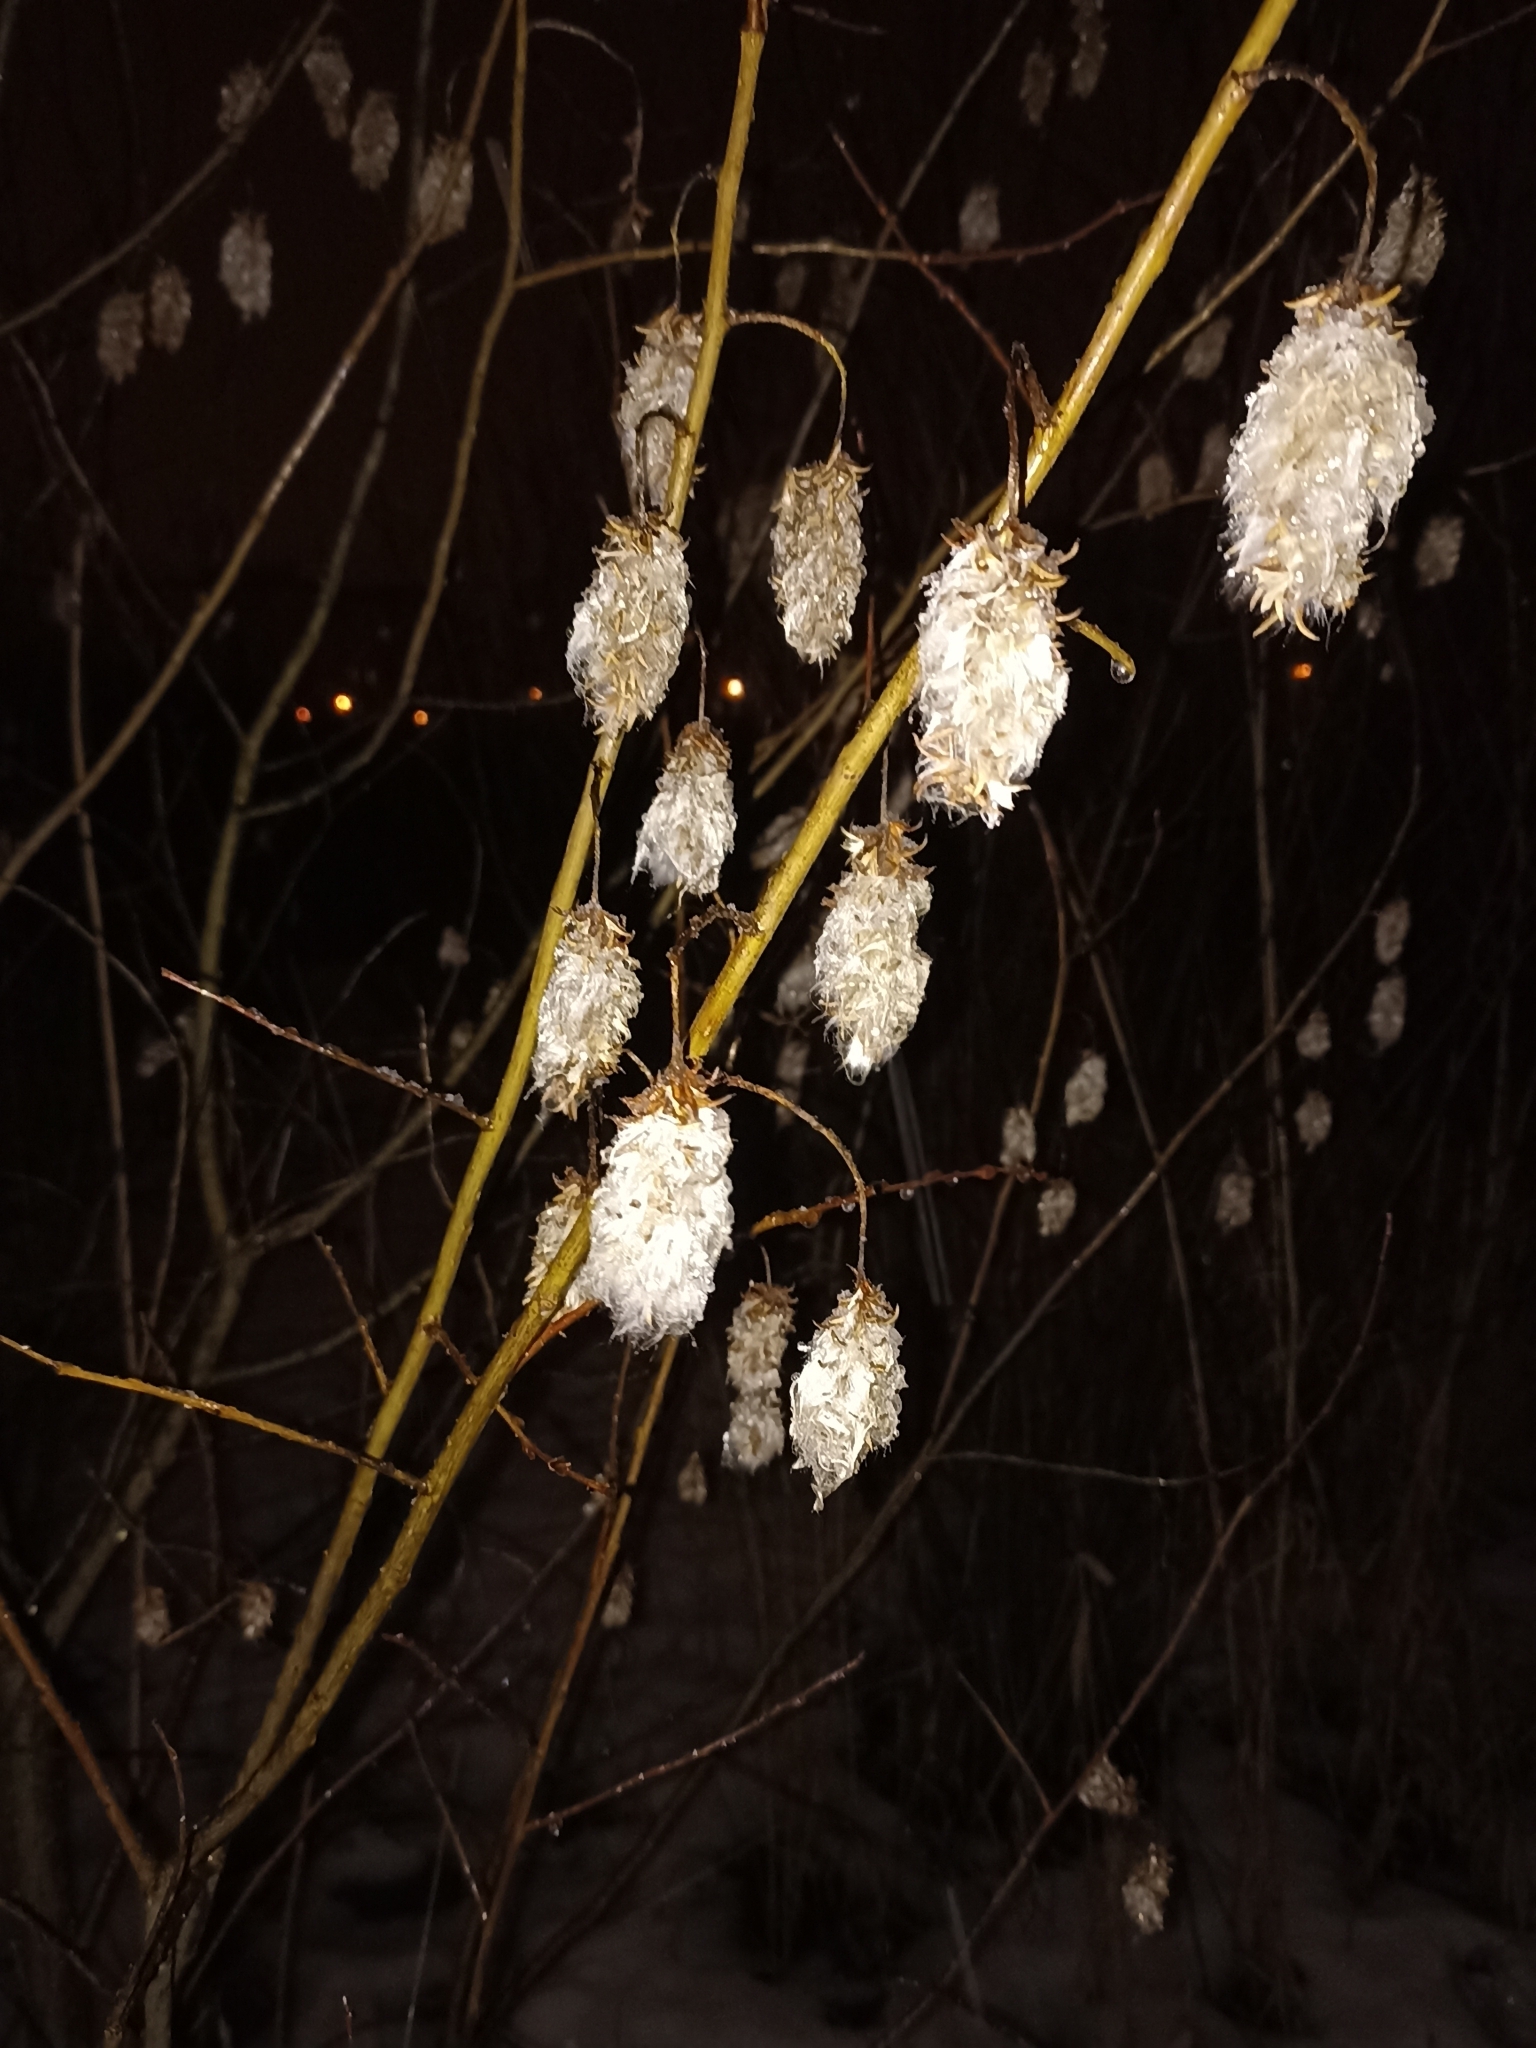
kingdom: Plantae
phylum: Tracheophyta
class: Magnoliopsida
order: Malpighiales
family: Salicaceae
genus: Salix
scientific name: Salix pentandra
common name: Bay willow
